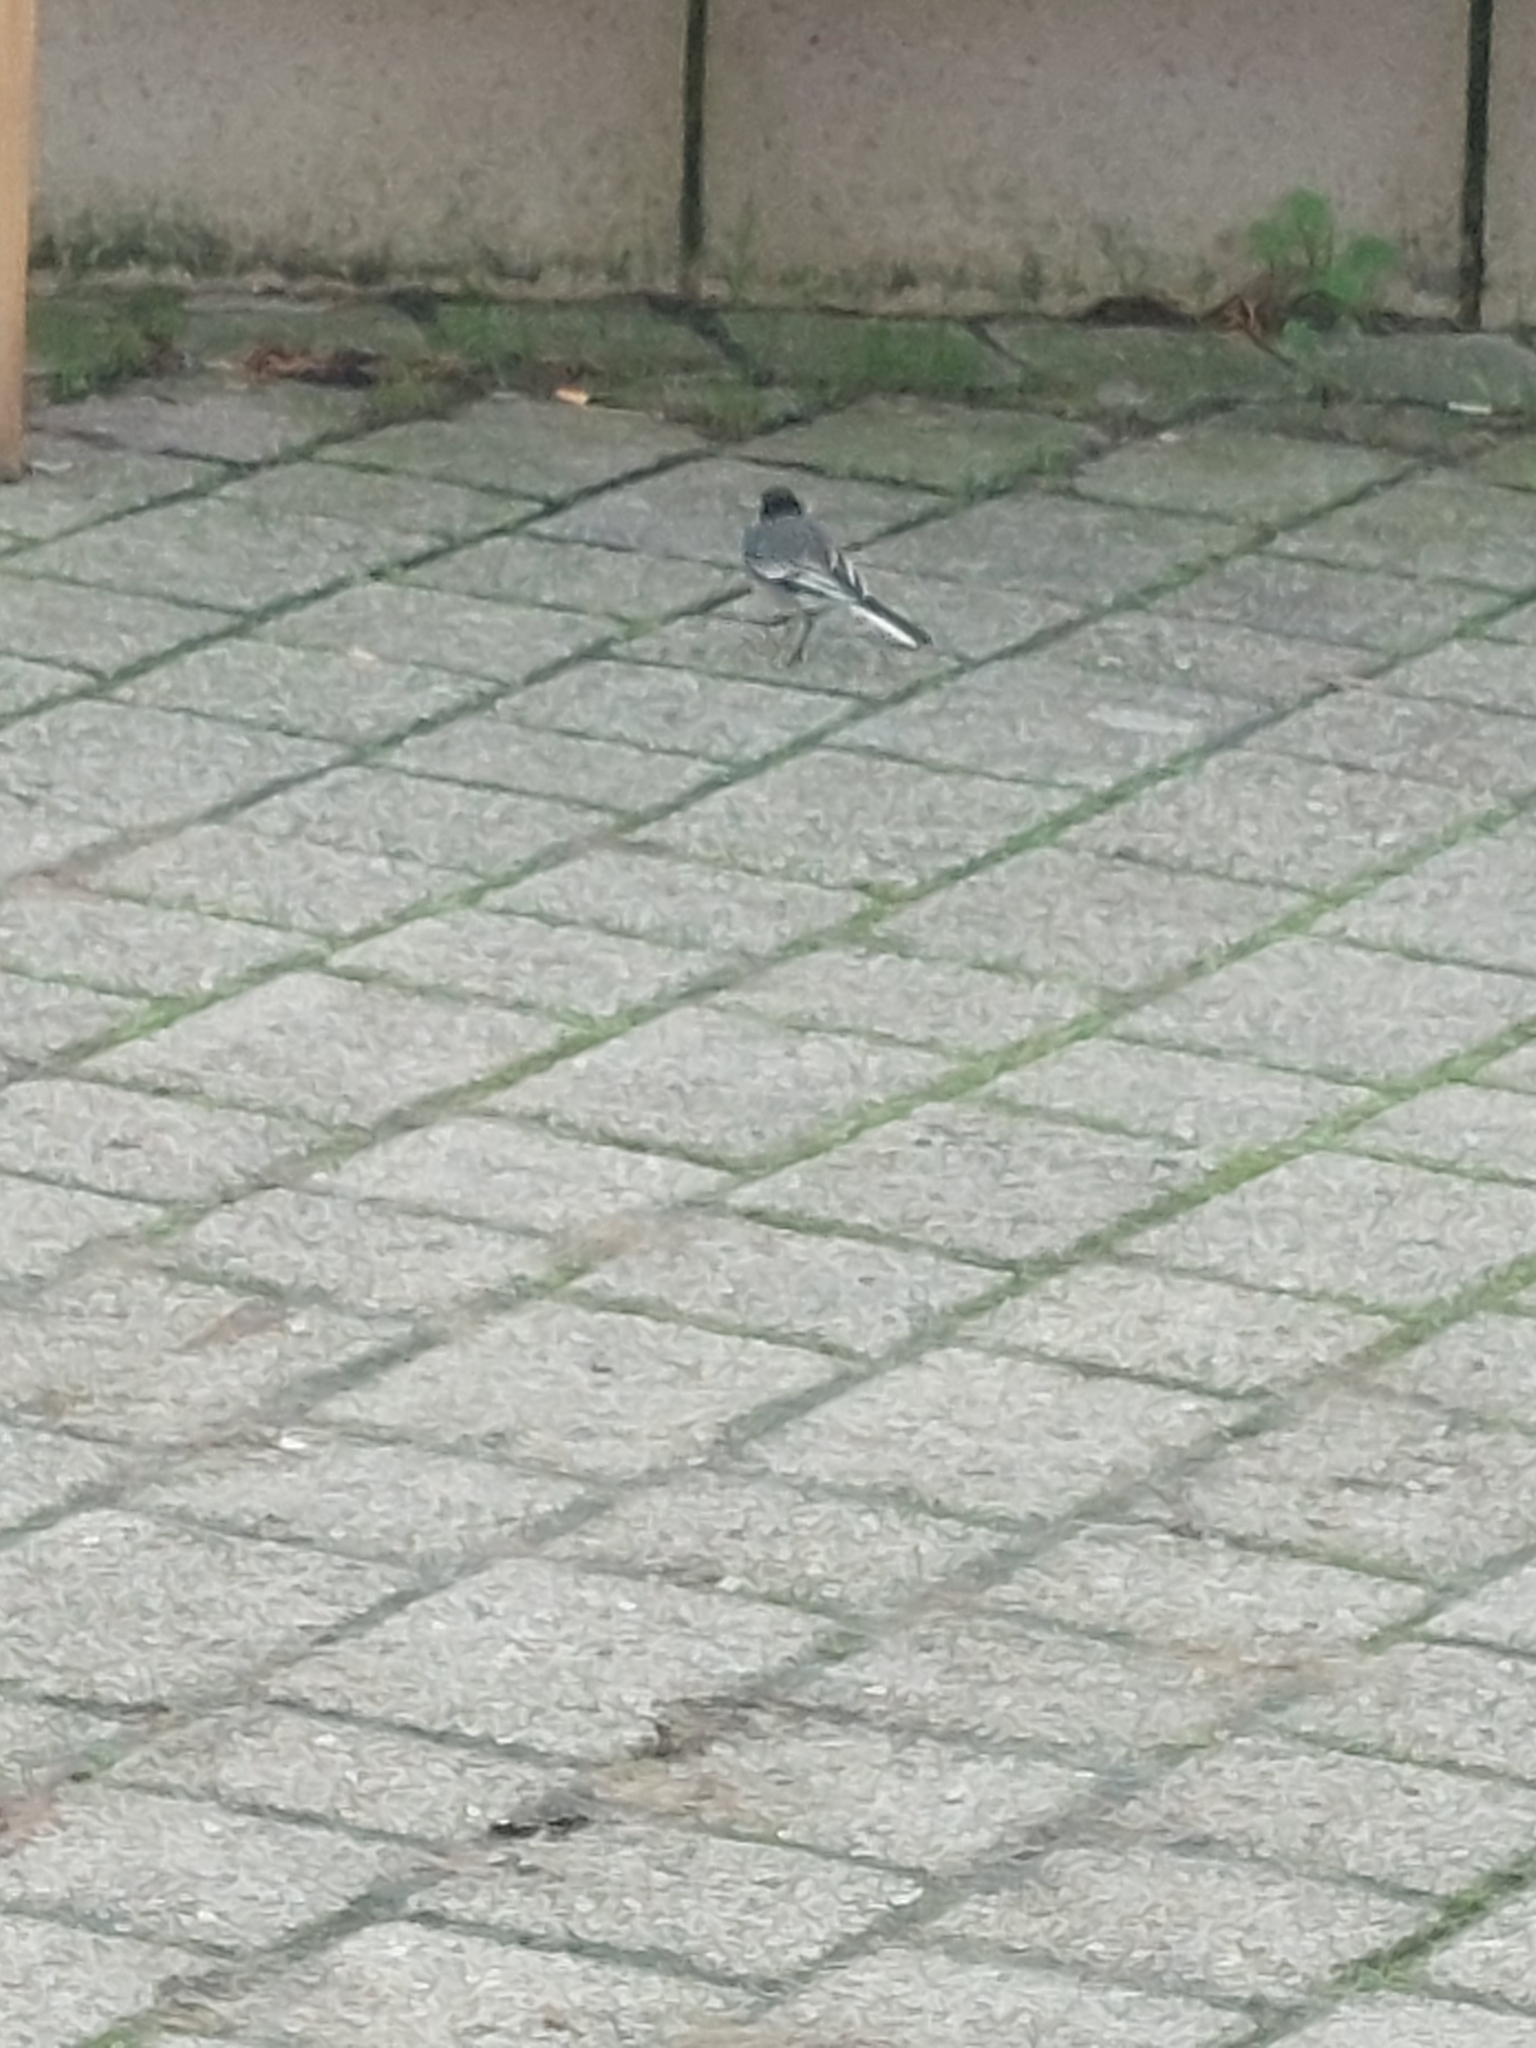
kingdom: Animalia
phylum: Chordata
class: Aves
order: Passeriformes
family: Motacillidae
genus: Motacilla
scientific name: Motacilla alba
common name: White wagtail
